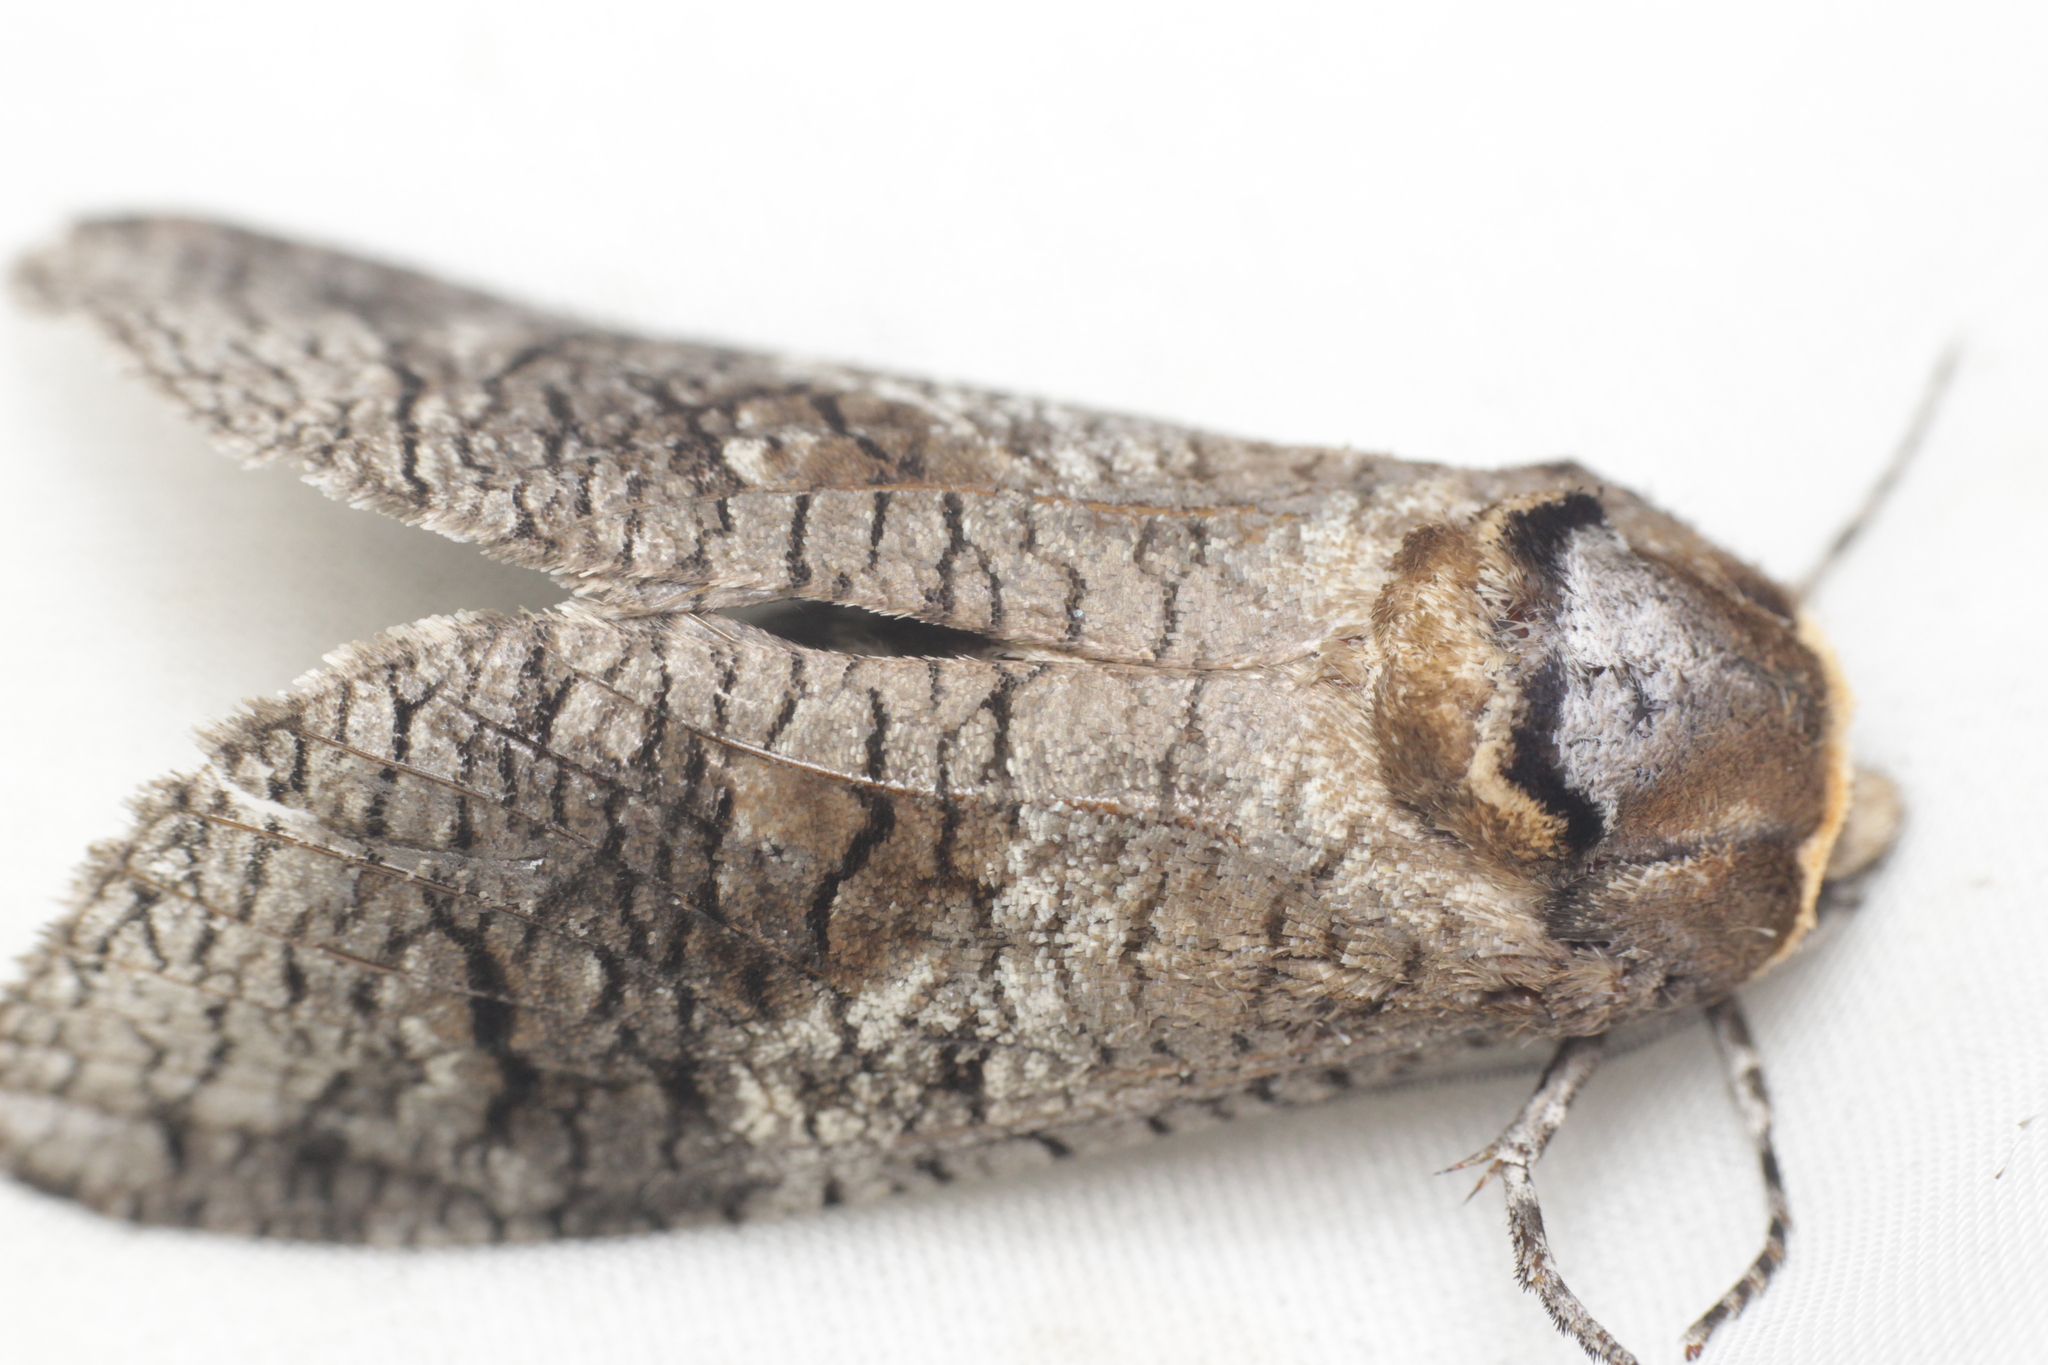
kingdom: Animalia
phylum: Arthropoda
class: Insecta
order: Lepidoptera
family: Cossidae
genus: Cossus
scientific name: Cossus cossus
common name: Goat moth
